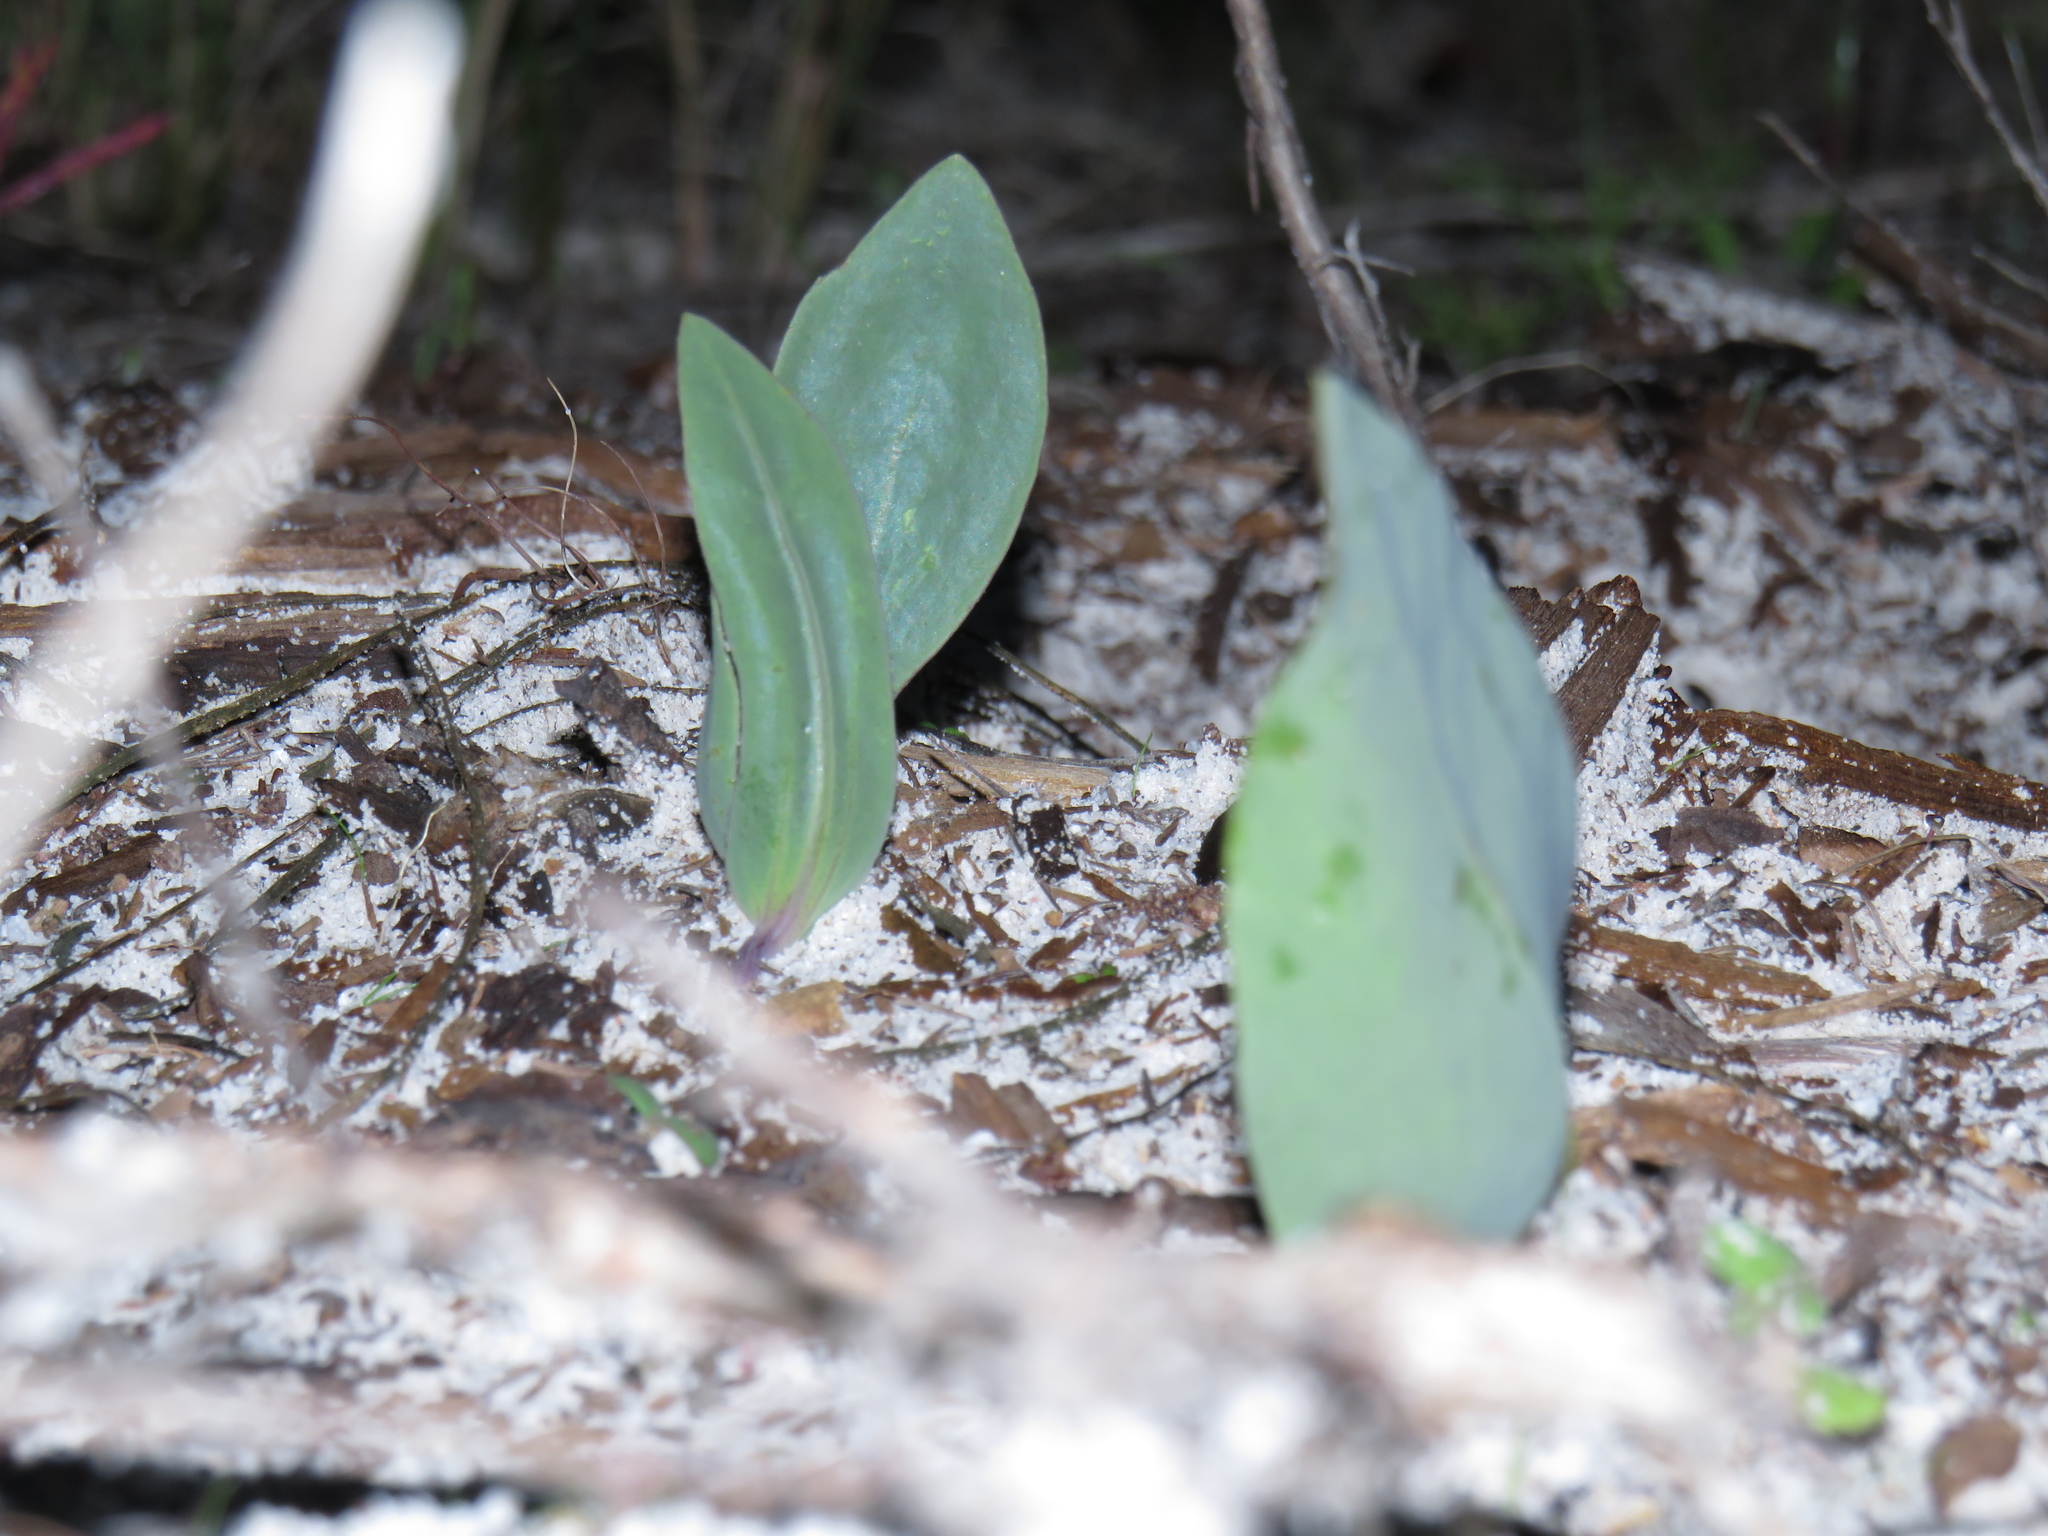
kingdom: Plantae
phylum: Tracheophyta
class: Magnoliopsida
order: Asterales
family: Asteraceae
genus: Othonna
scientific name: Othonna bulbosa
